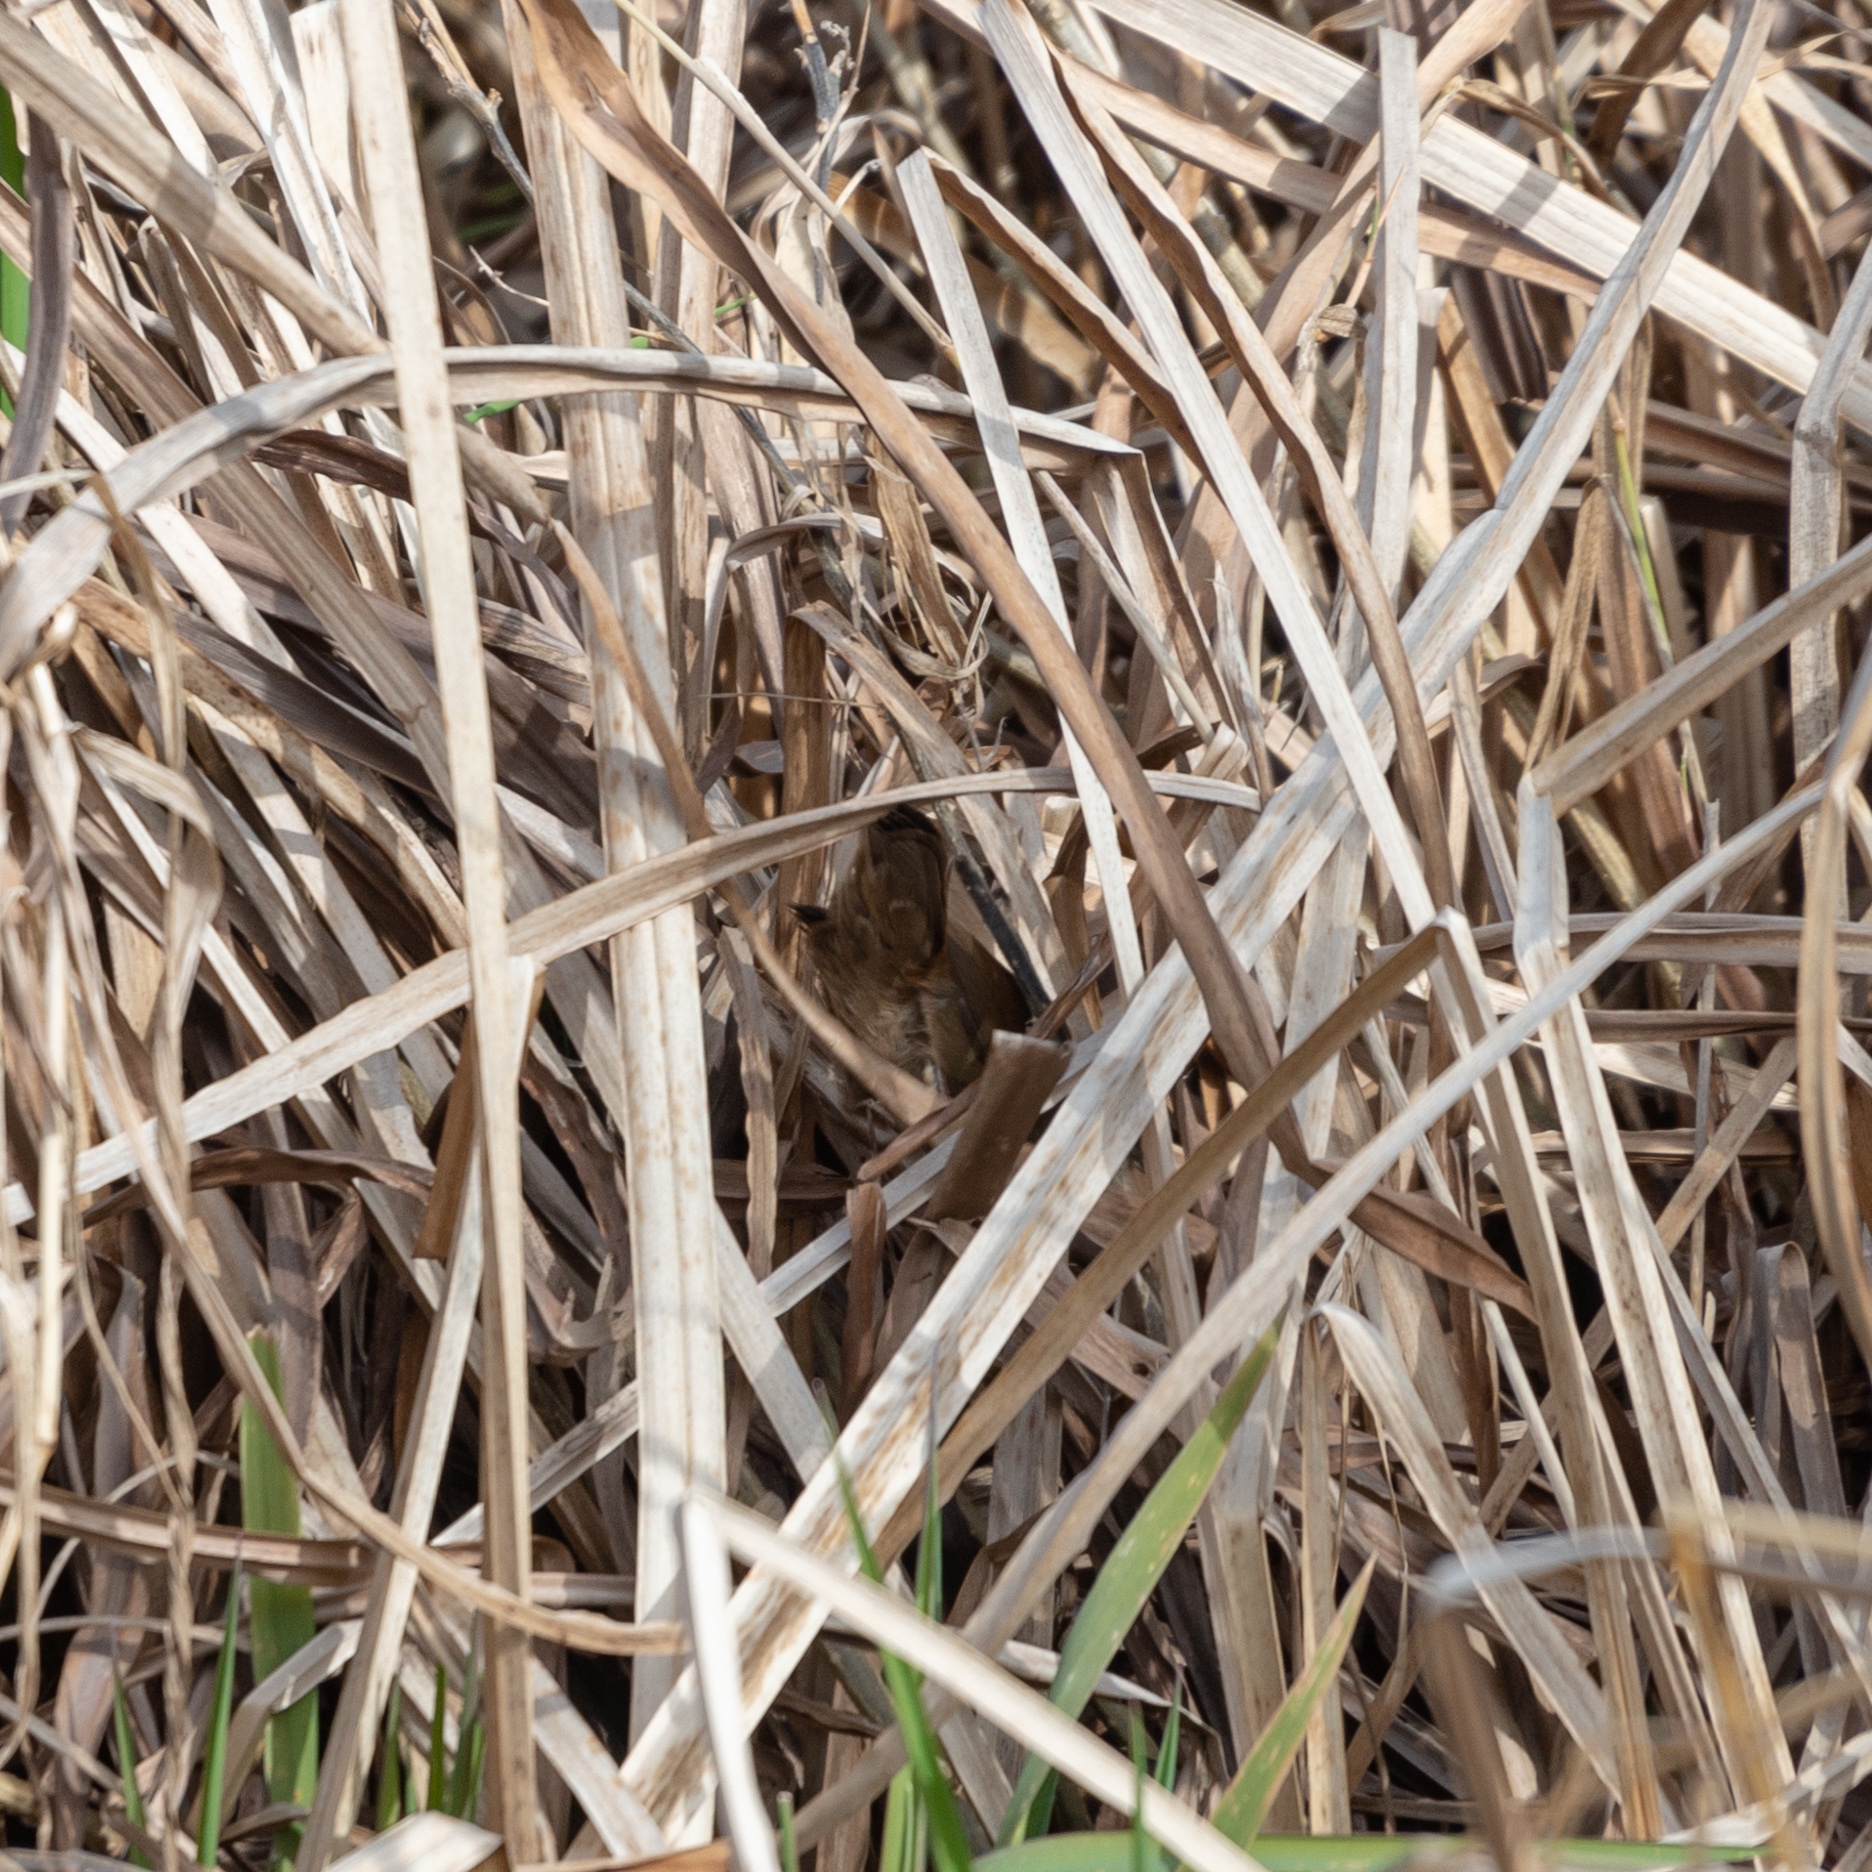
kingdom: Animalia
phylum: Chordata
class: Aves
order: Passeriformes
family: Cettiidae
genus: Cettia
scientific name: Cettia cetti
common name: Cetti's warbler
